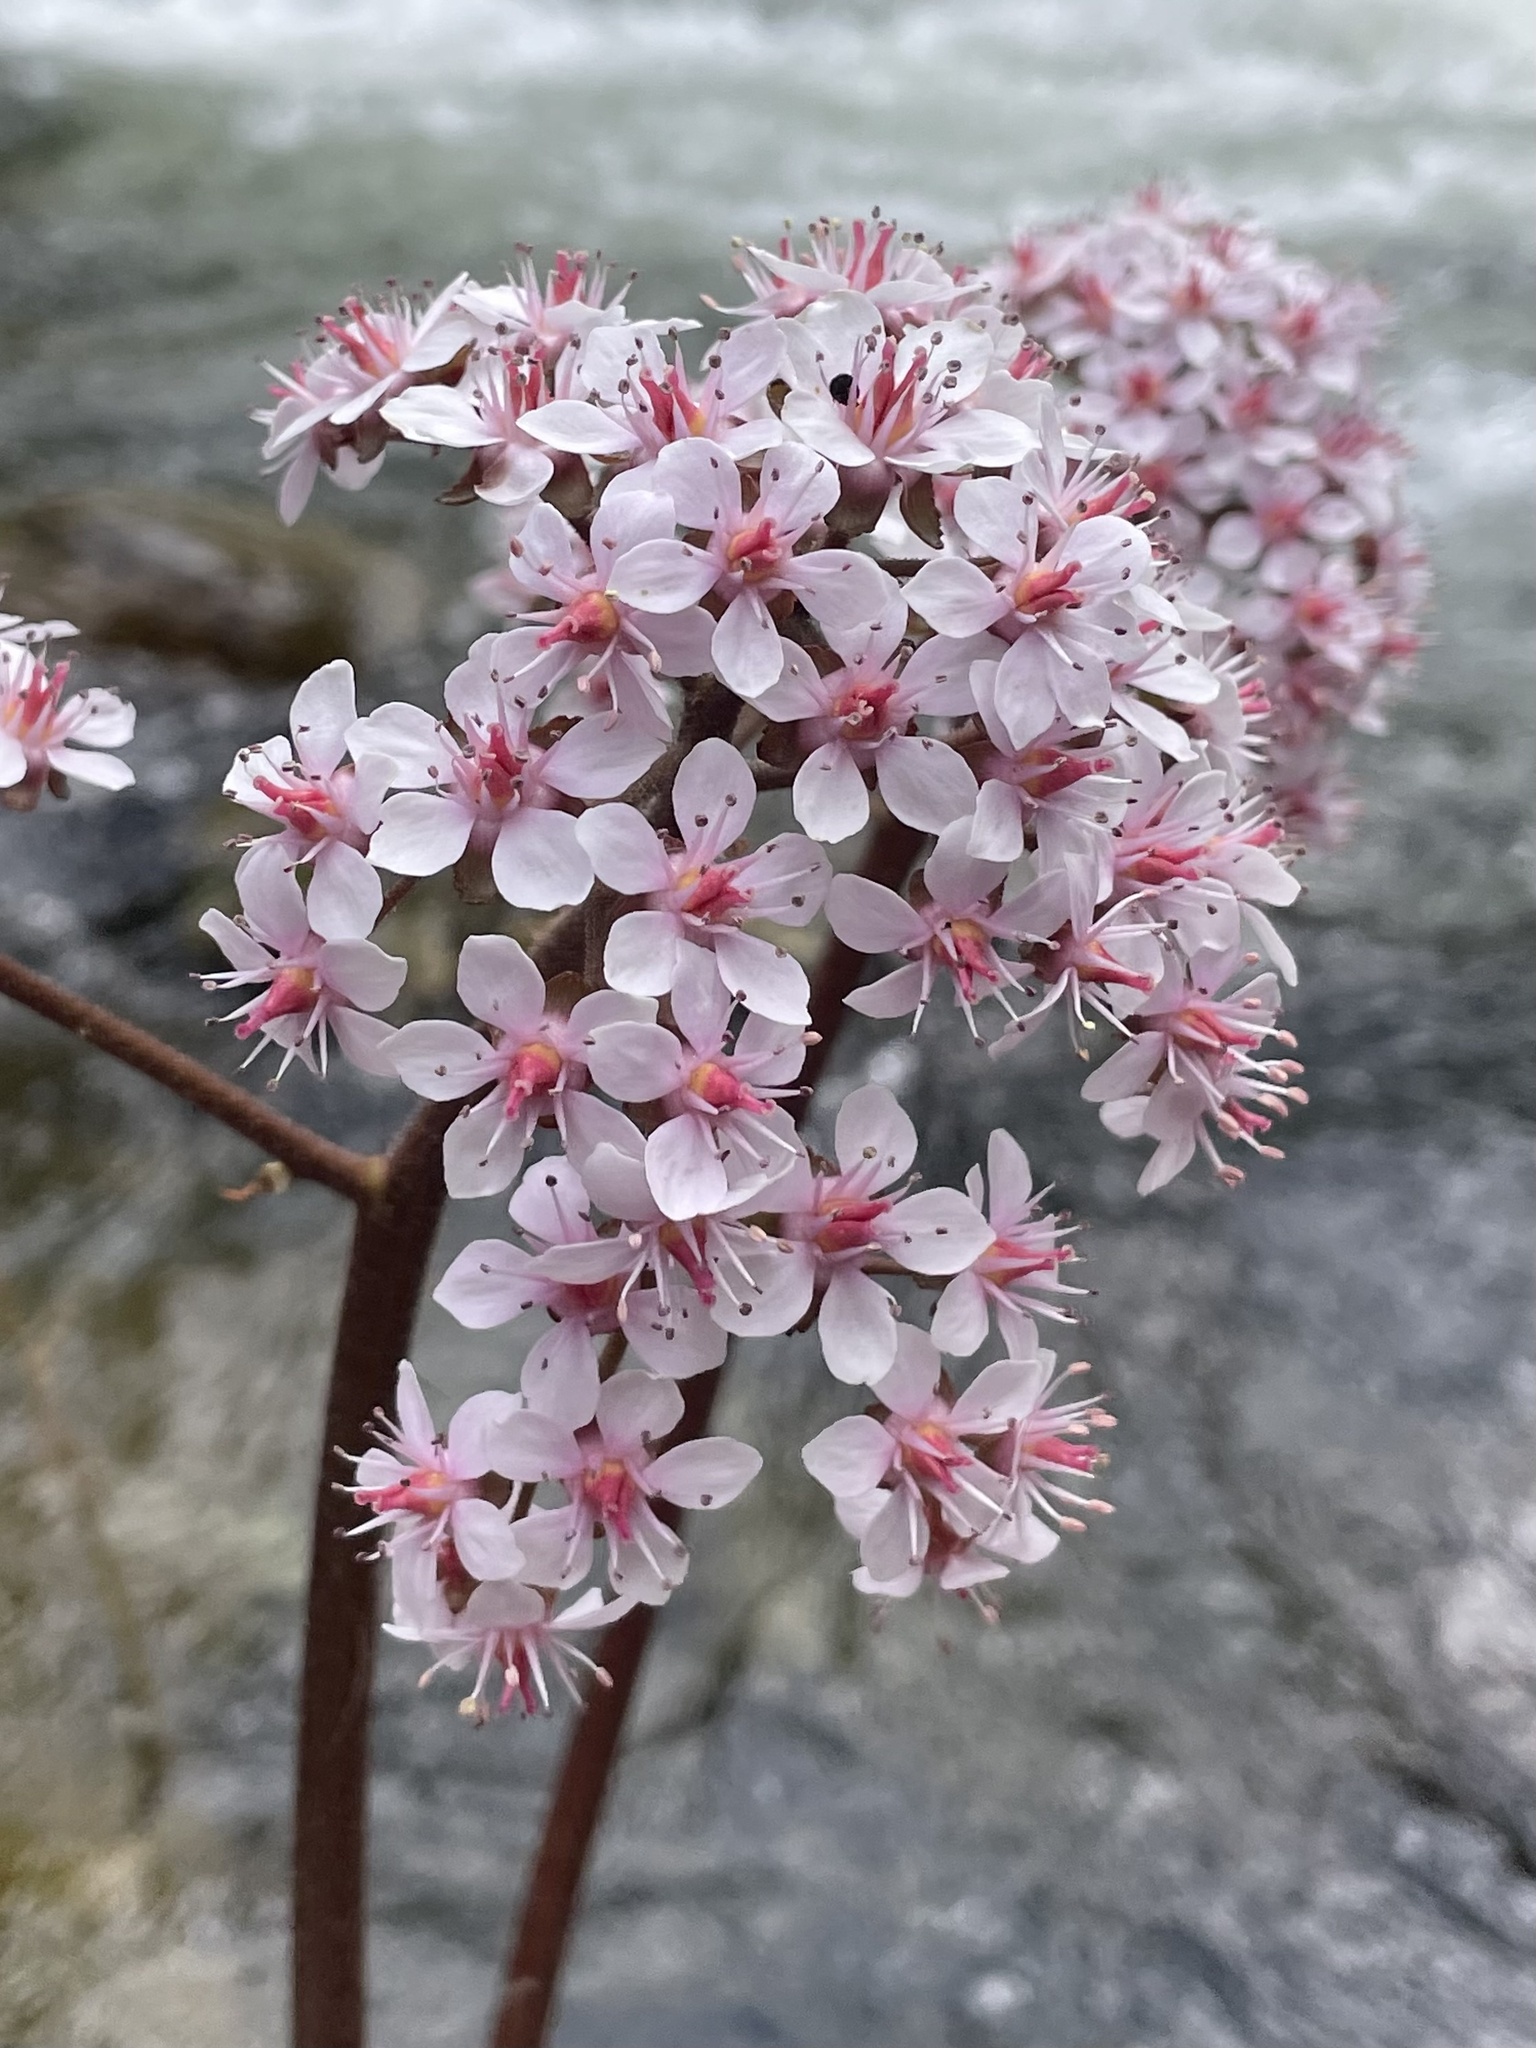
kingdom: Plantae
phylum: Tracheophyta
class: Magnoliopsida
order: Saxifragales
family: Saxifragaceae
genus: Darmera
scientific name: Darmera peltata
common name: Indian-rhubarb
